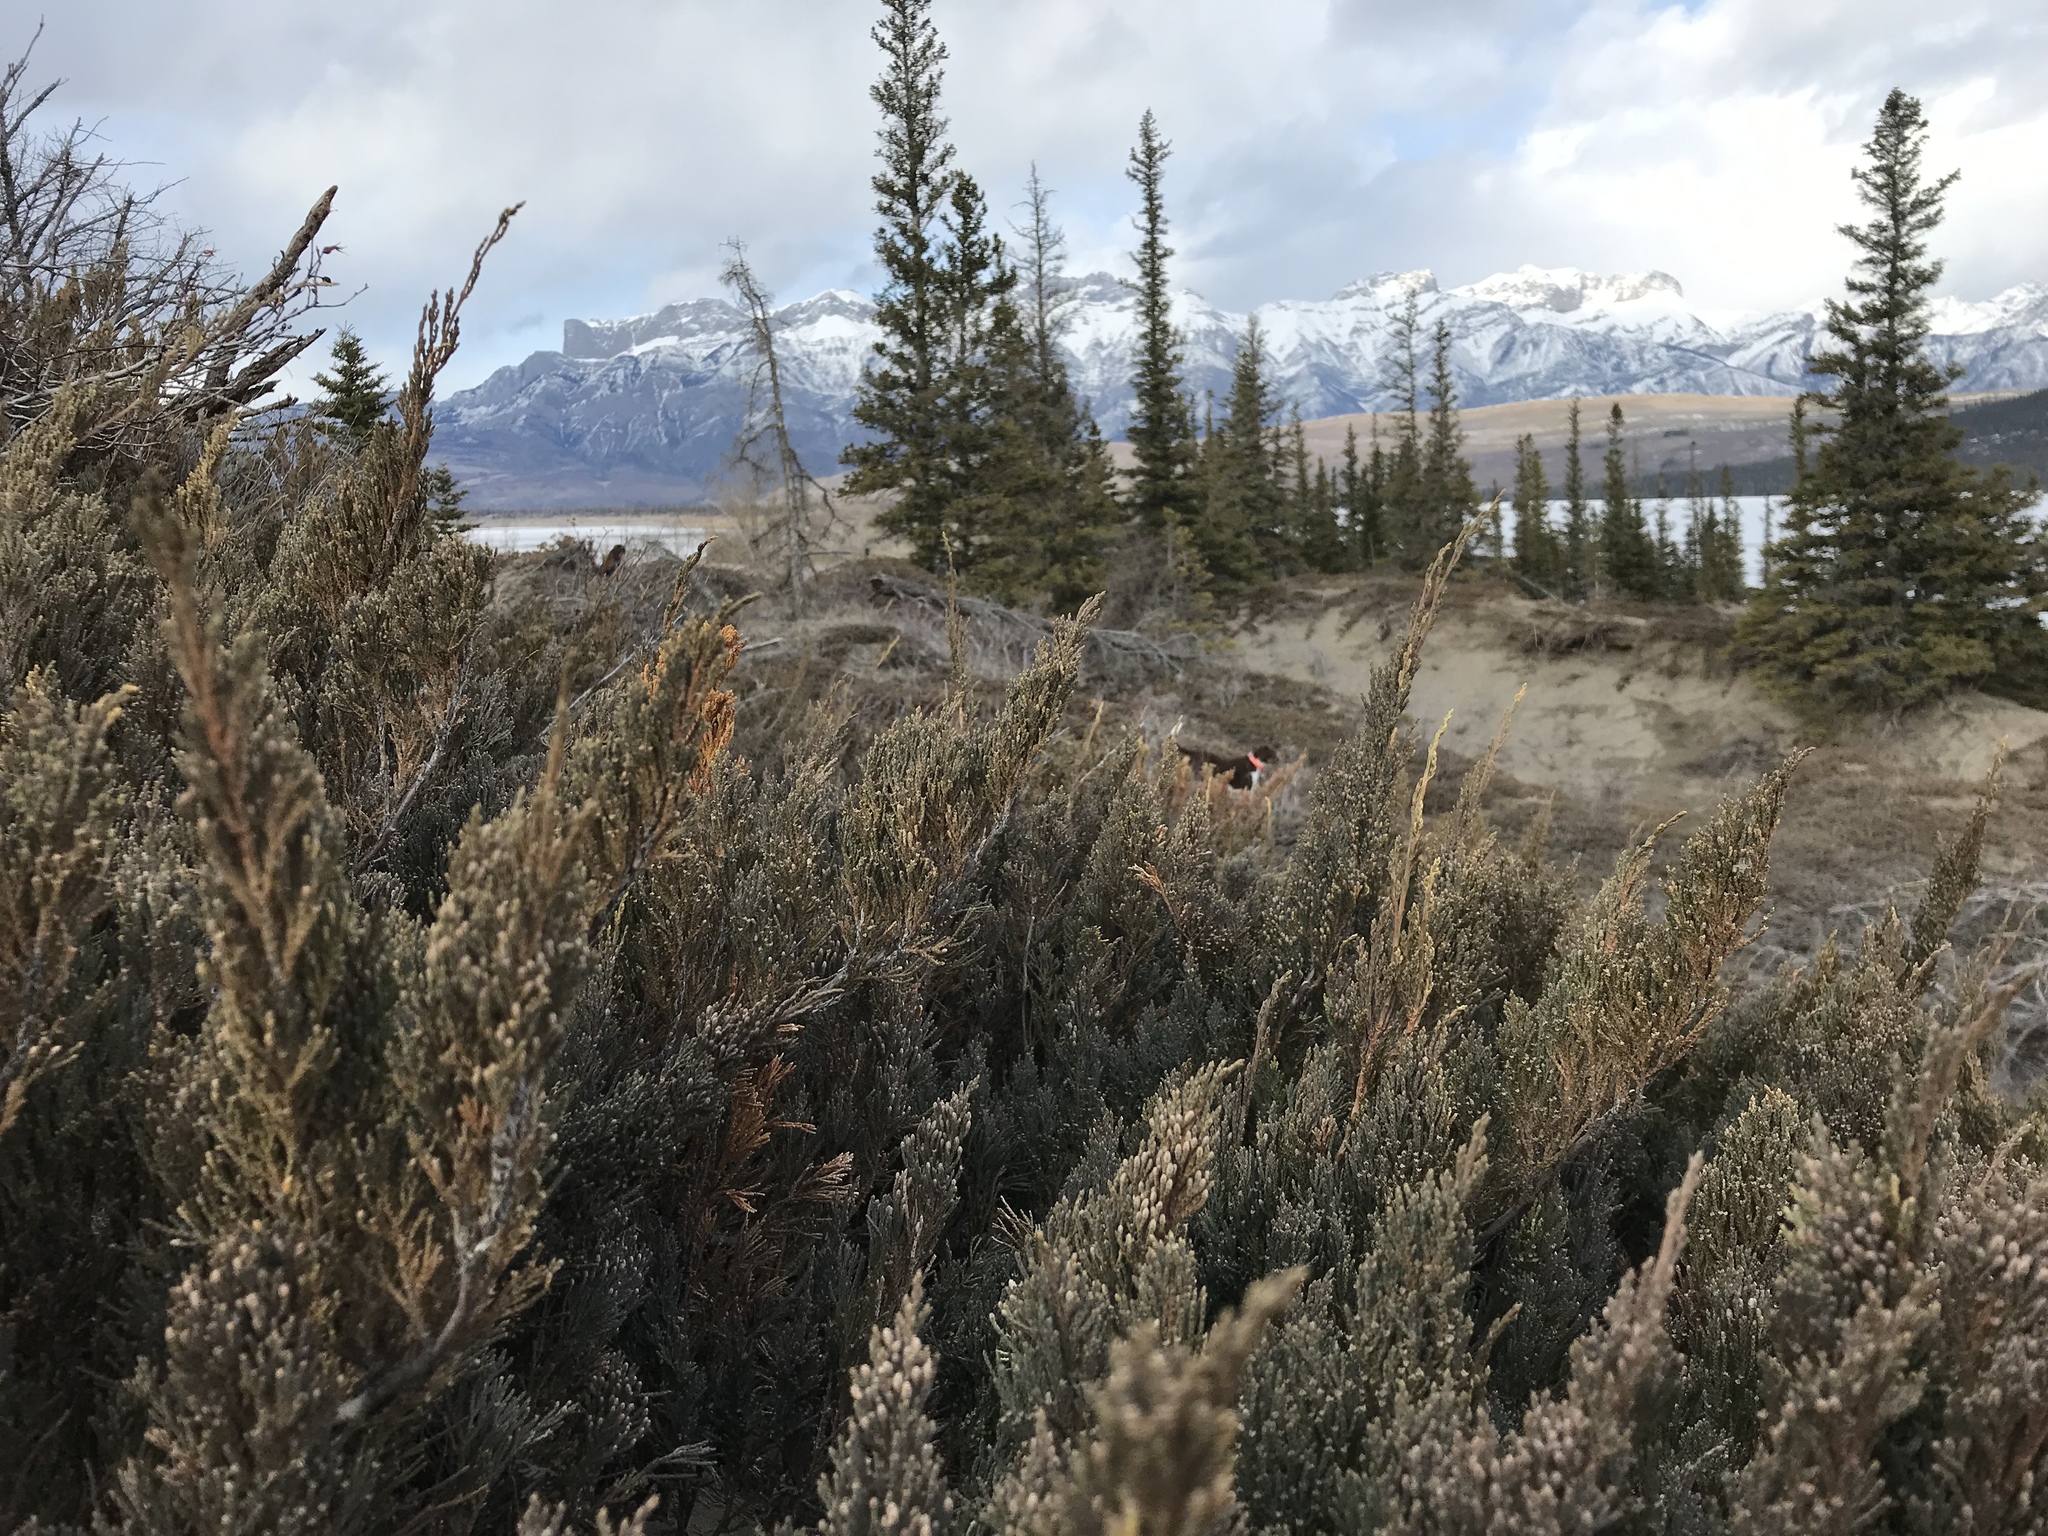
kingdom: Plantae
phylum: Tracheophyta
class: Pinopsida
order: Pinales
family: Cupressaceae
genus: Juniperus
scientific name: Juniperus horizontalis
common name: Creeping juniper
